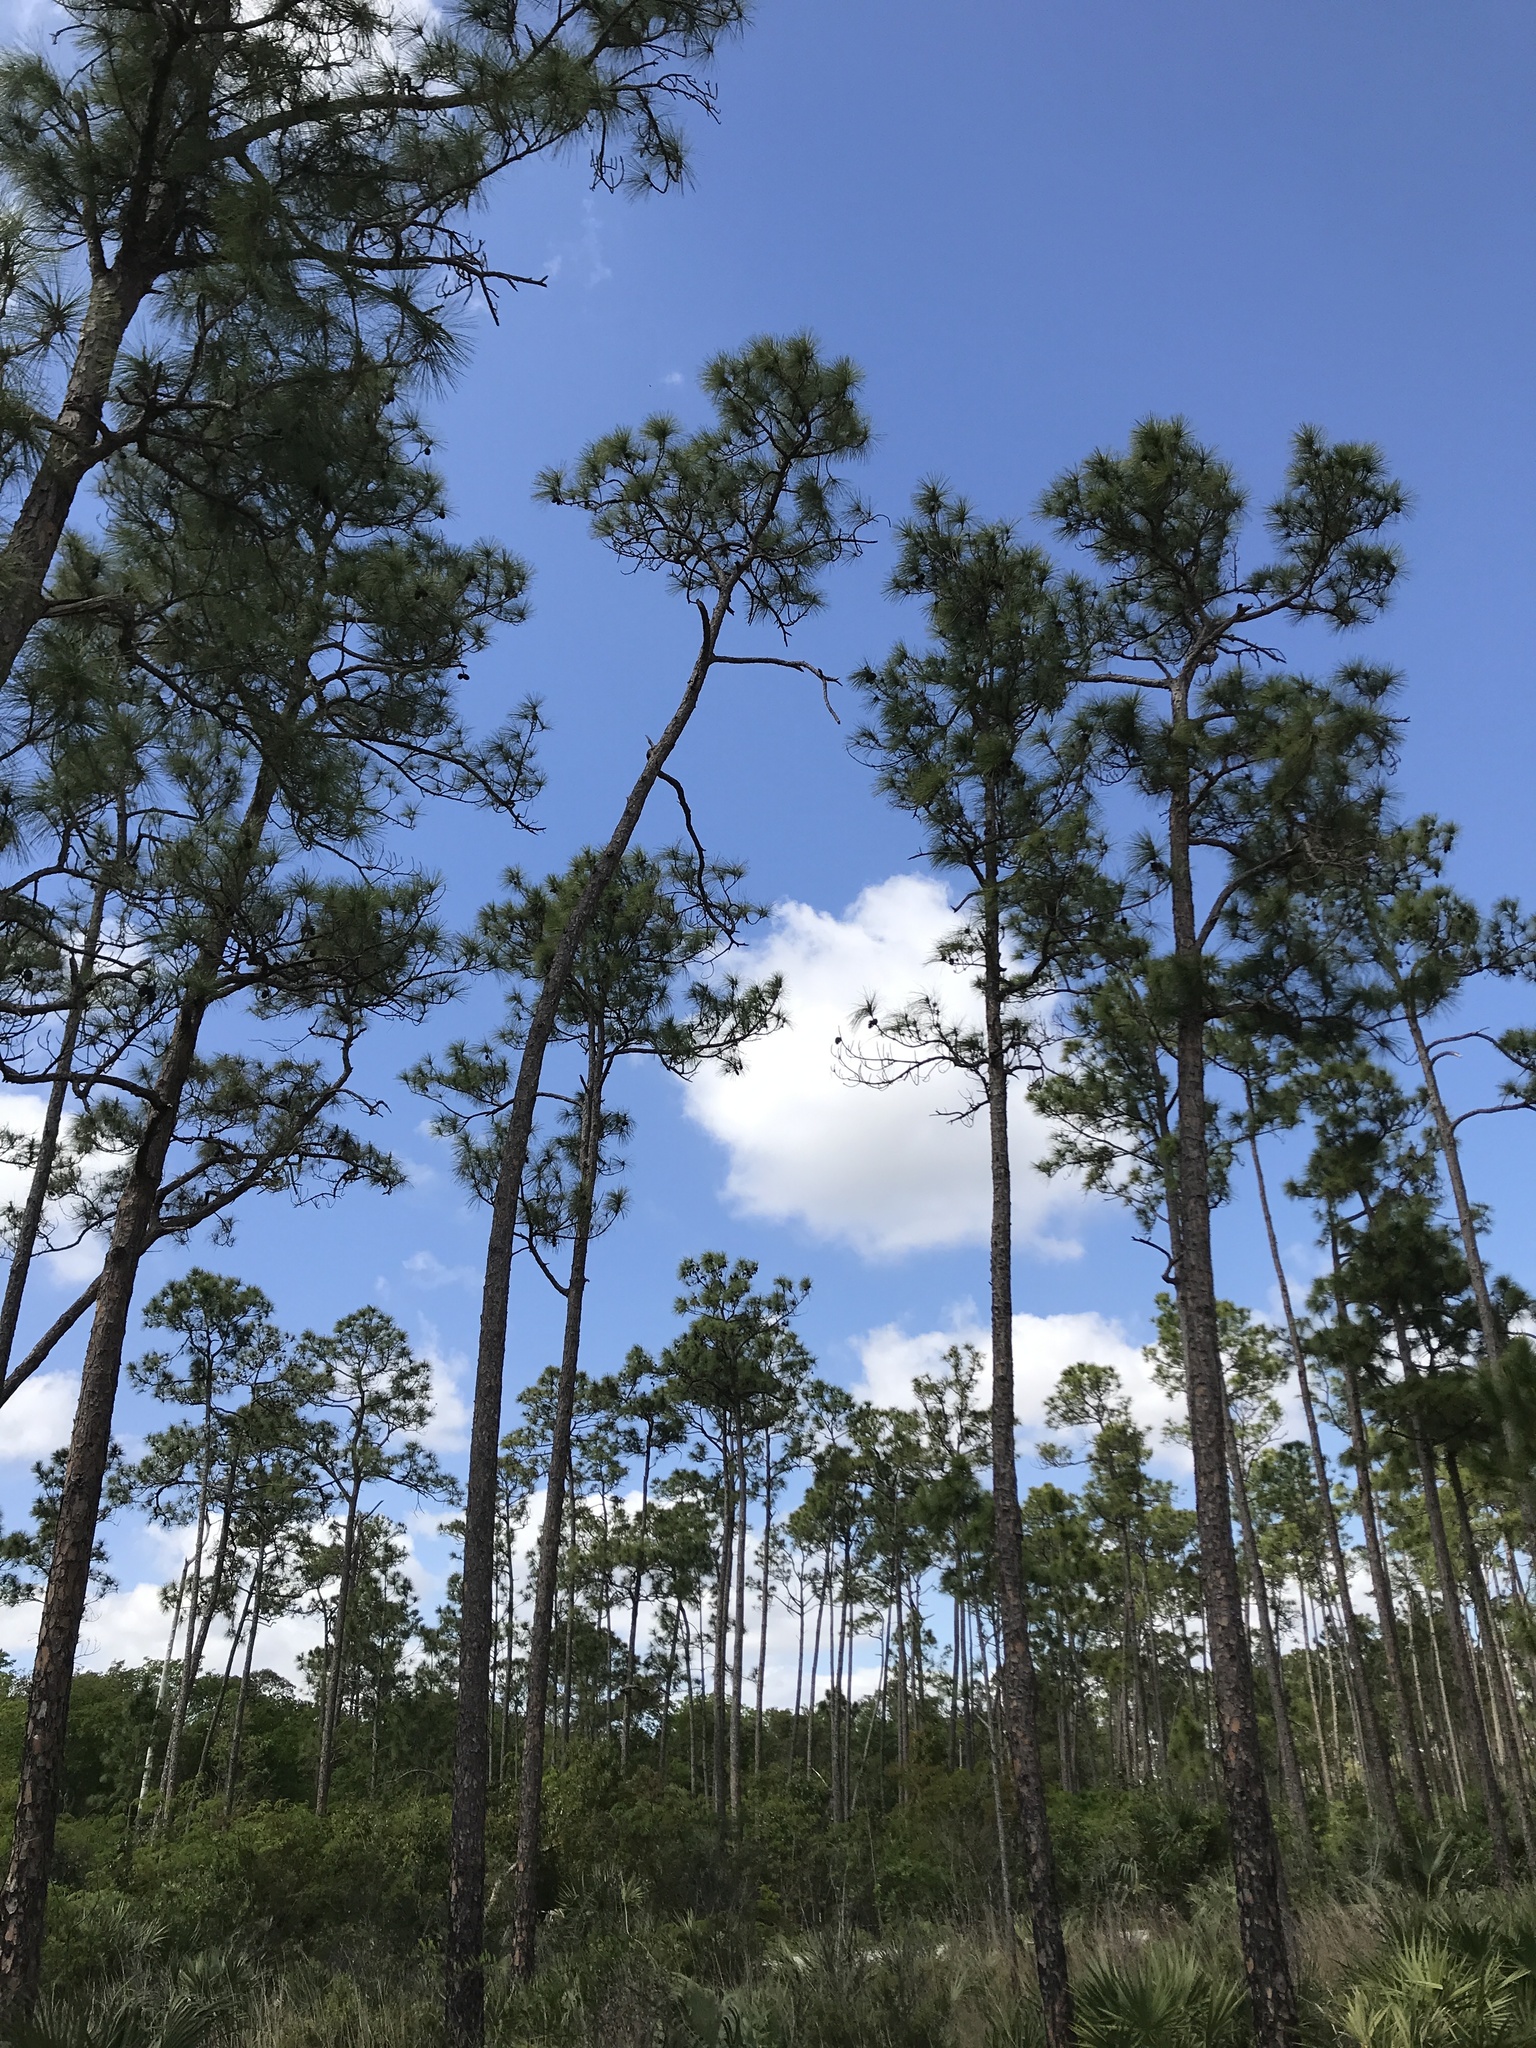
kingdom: Plantae
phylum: Tracheophyta
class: Pinopsida
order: Pinales
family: Pinaceae
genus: Pinus
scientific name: Pinus elliottii
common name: Slash pine
